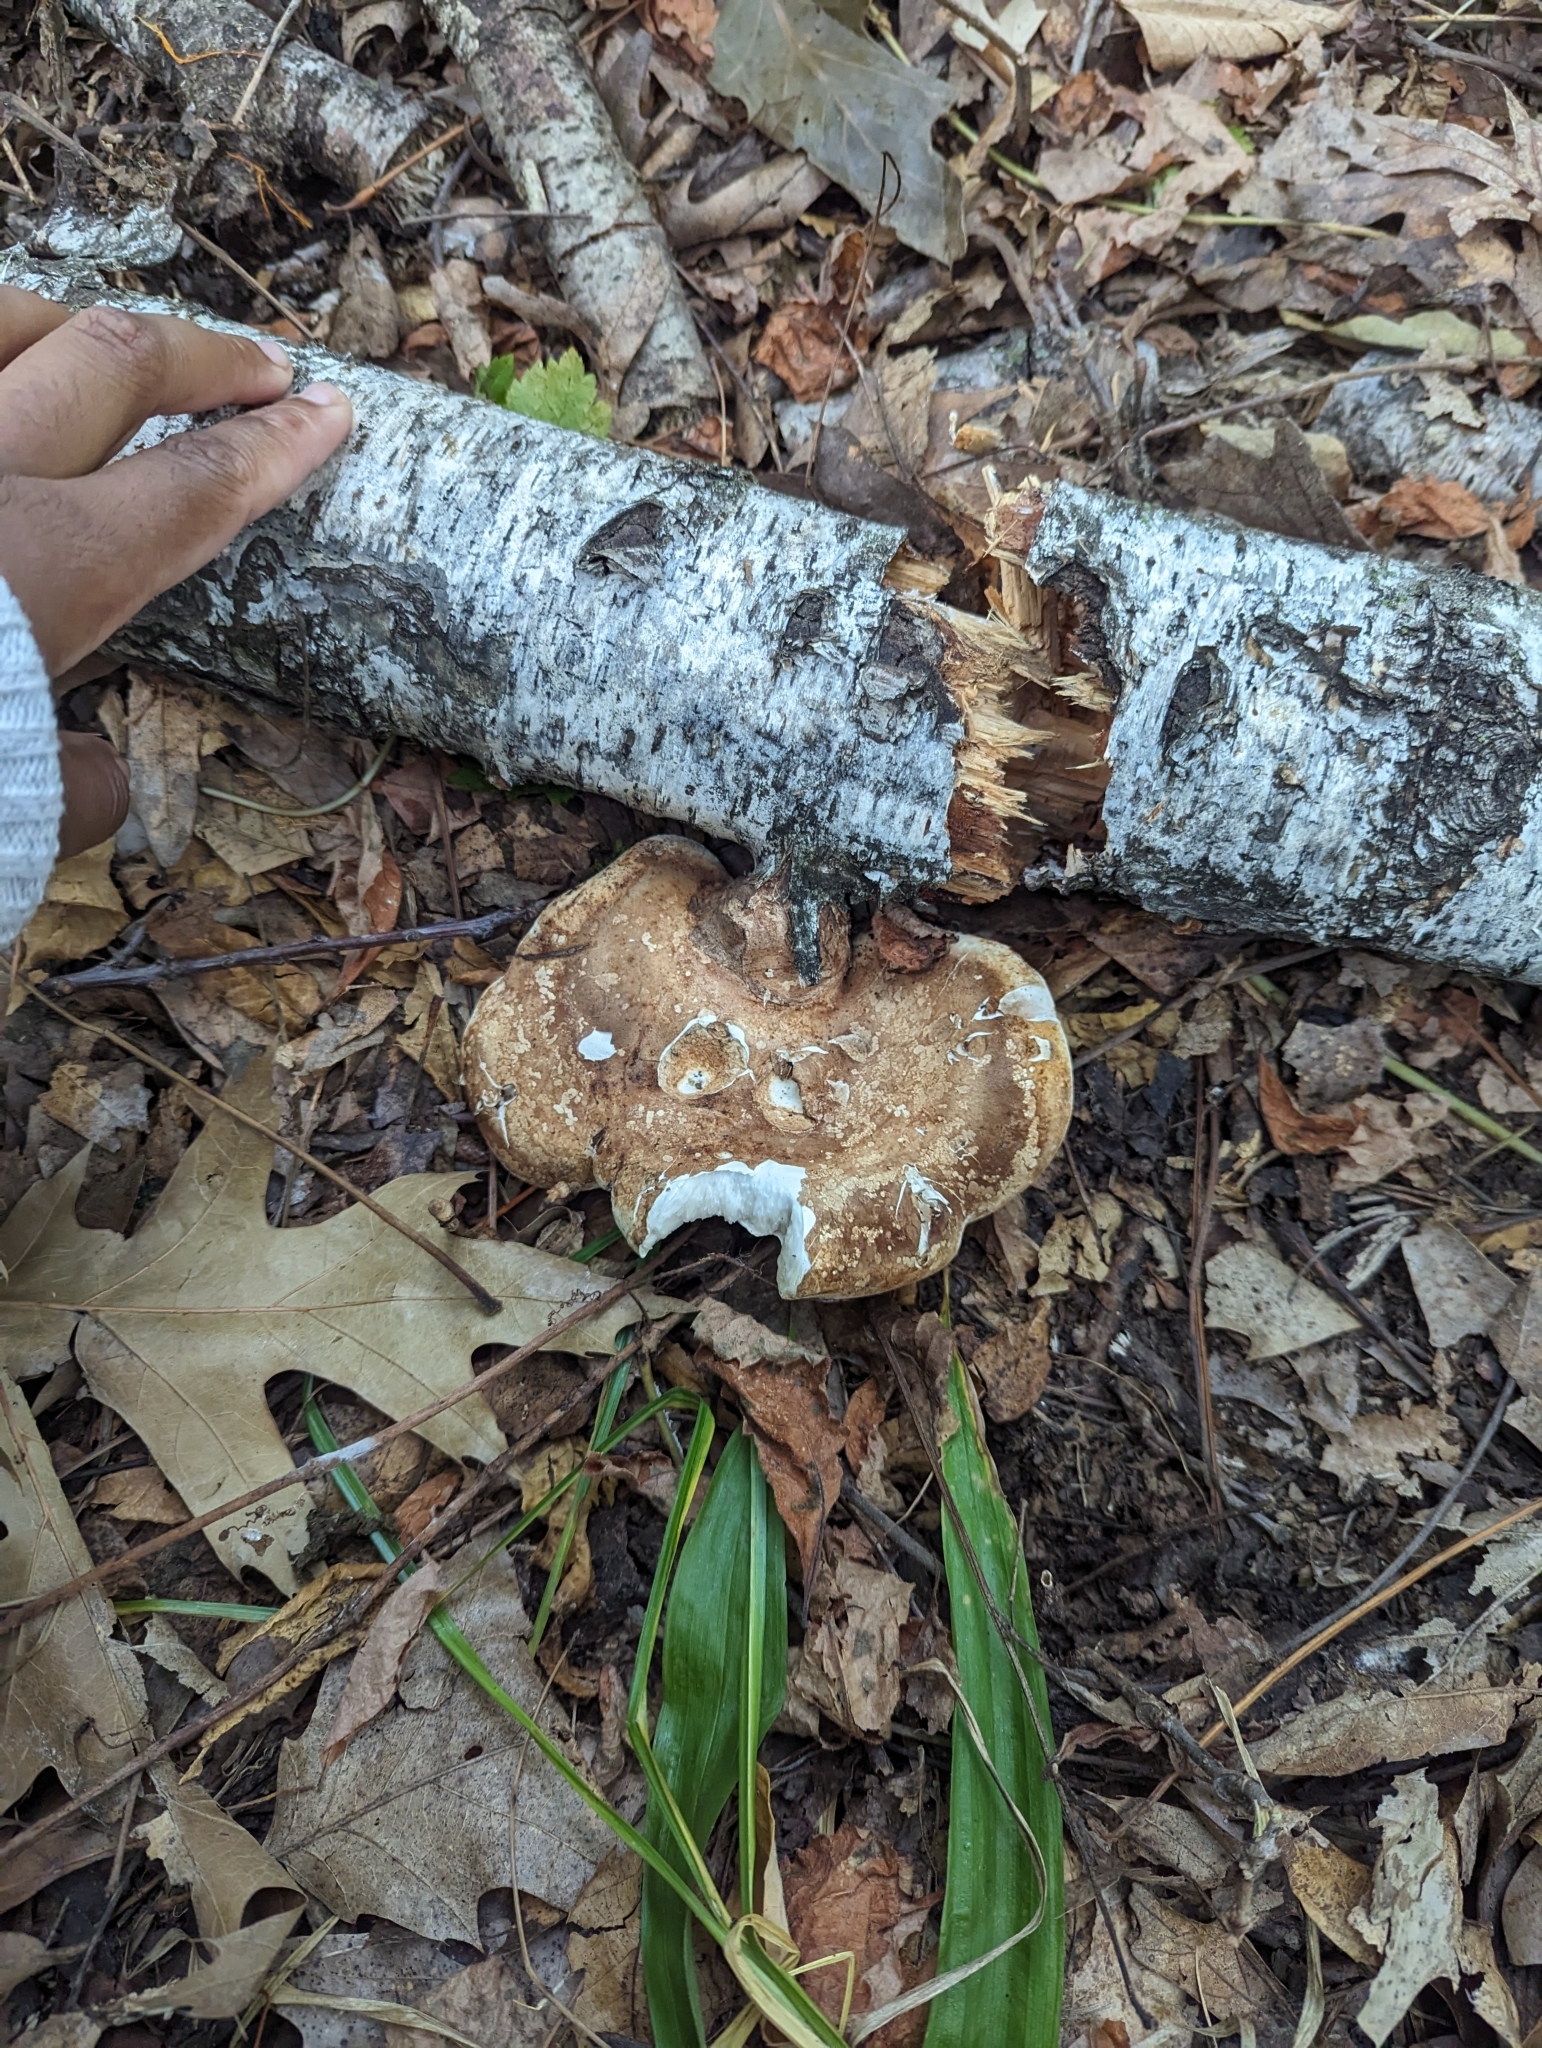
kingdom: Fungi
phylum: Basidiomycota
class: Agaricomycetes
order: Polyporales
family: Fomitopsidaceae
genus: Fomitopsis
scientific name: Fomitopsis betulina
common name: Birch polypore
